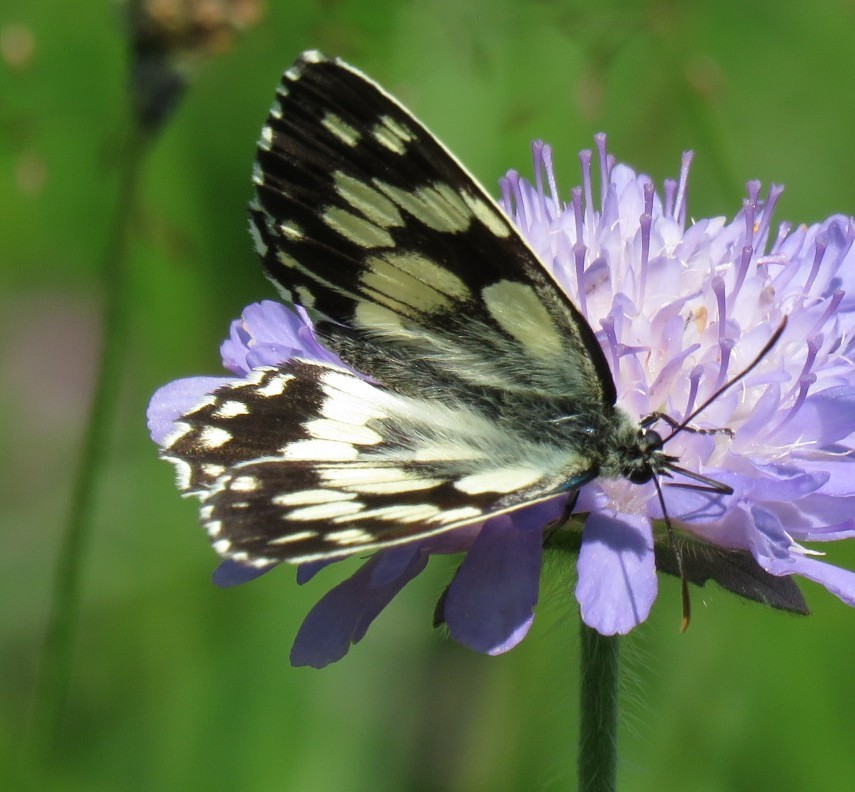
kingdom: Animalia
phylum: Arthropoda
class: Insecta
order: Lepidoptera
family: Nymphalidae
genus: Melanargia
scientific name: Melanargia galathea
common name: Marbled white
